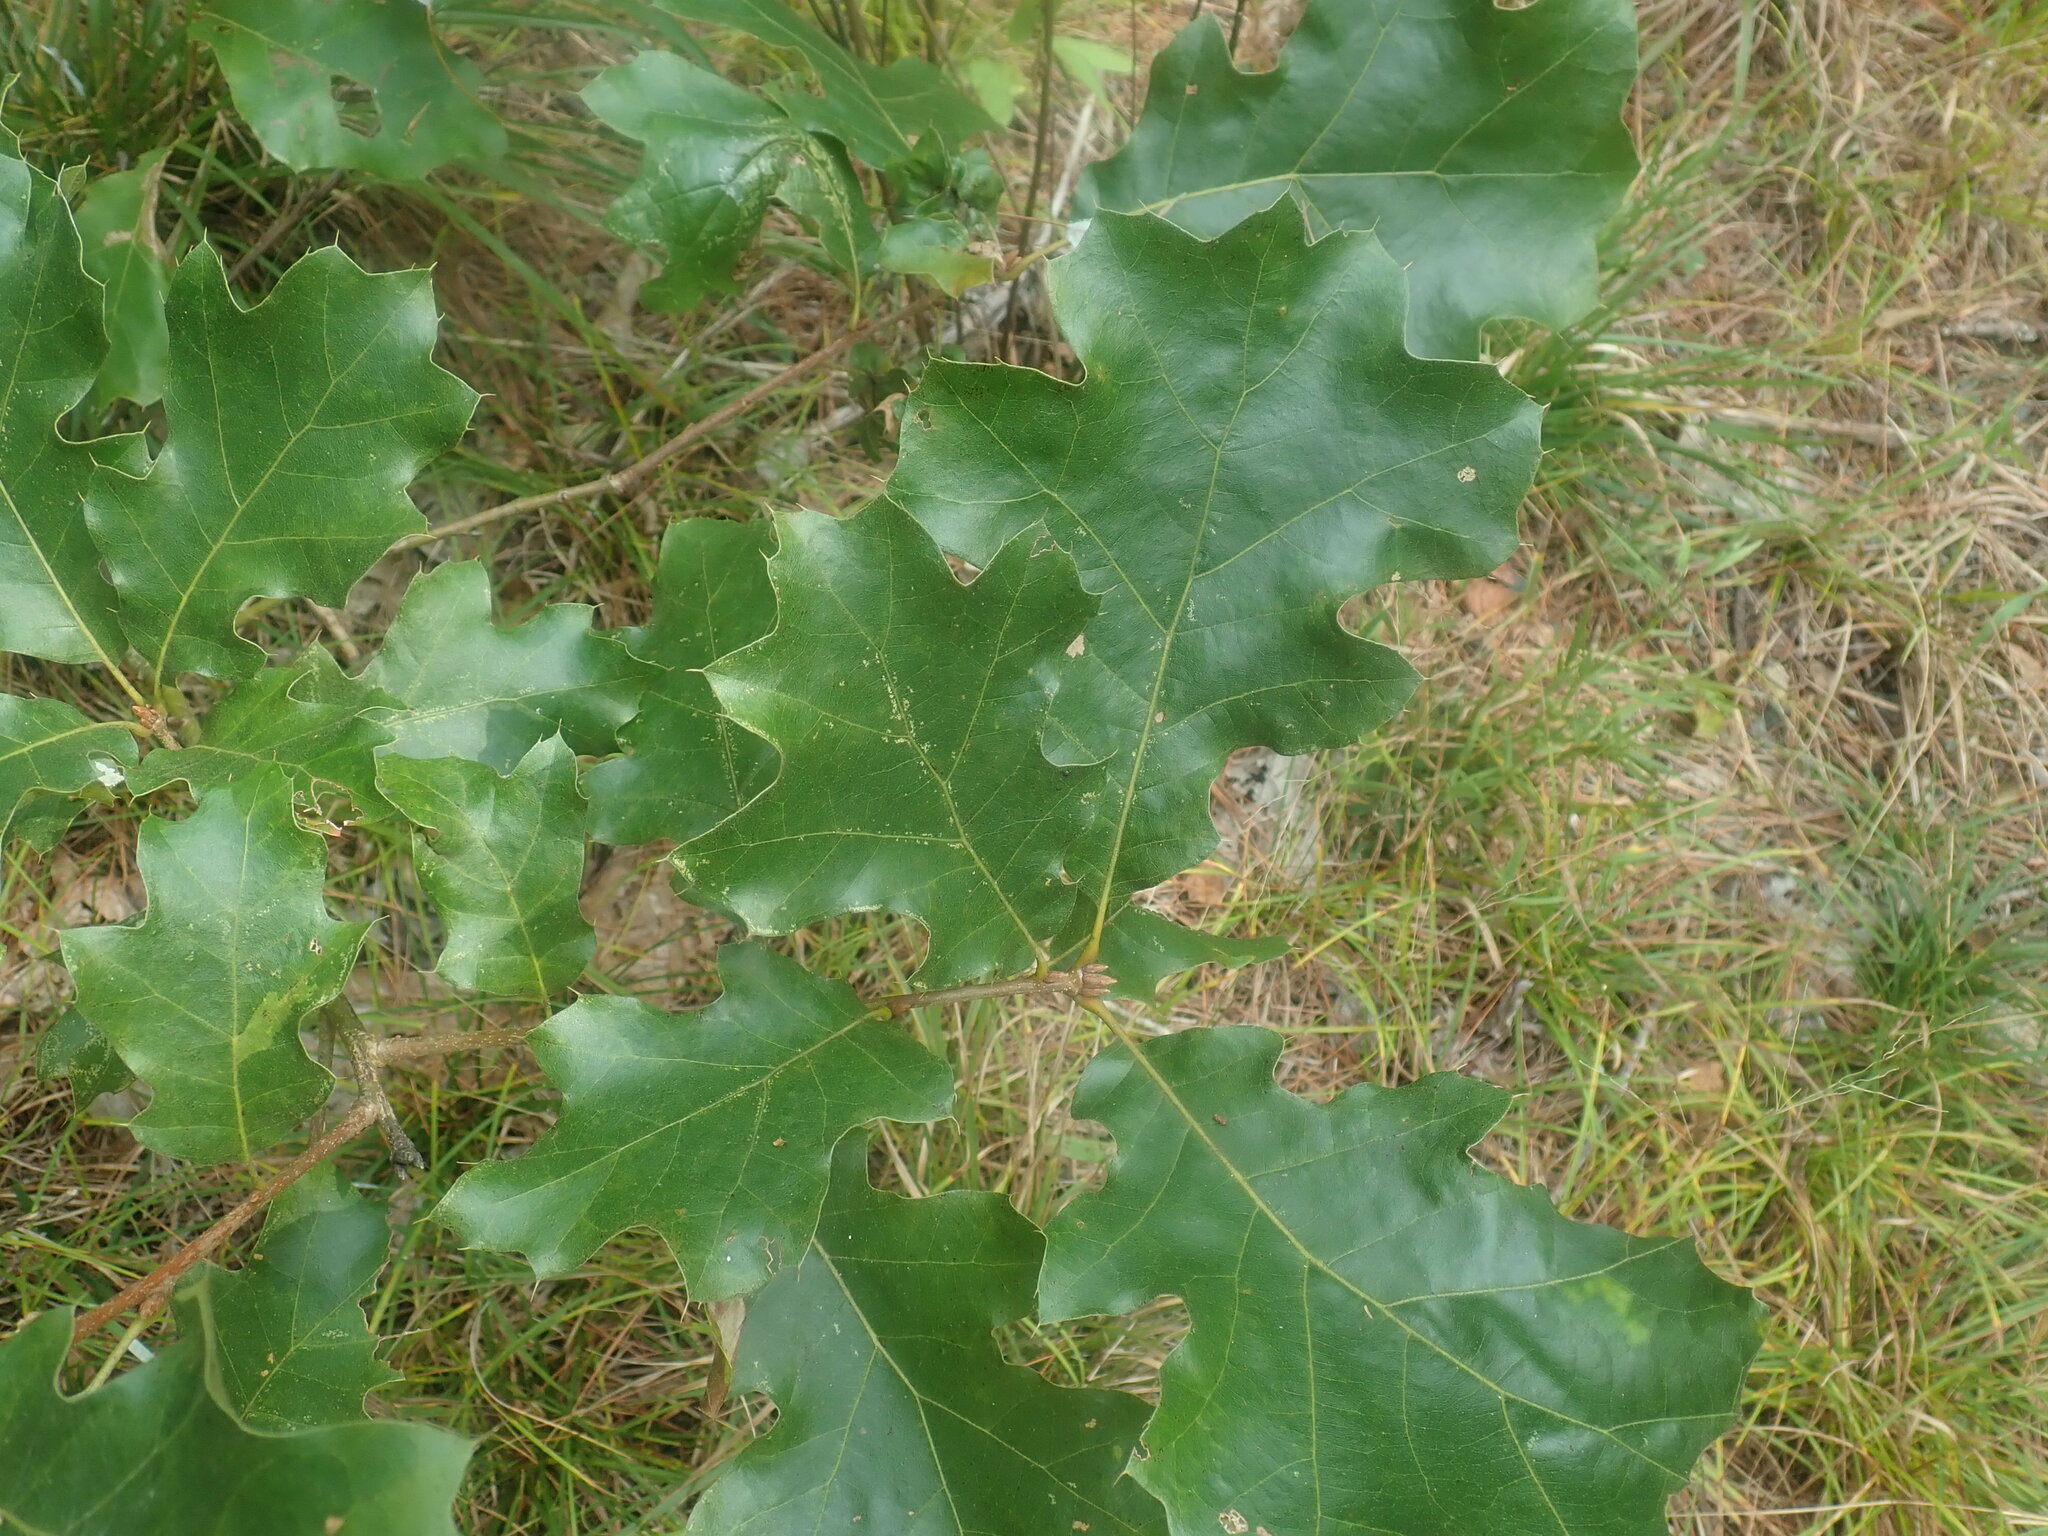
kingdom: Plantae
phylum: Tracheophyta
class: Magnoliopsida
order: Fagales
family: Fagaceae
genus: Quercus
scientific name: Quercus velutina
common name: Black oak
